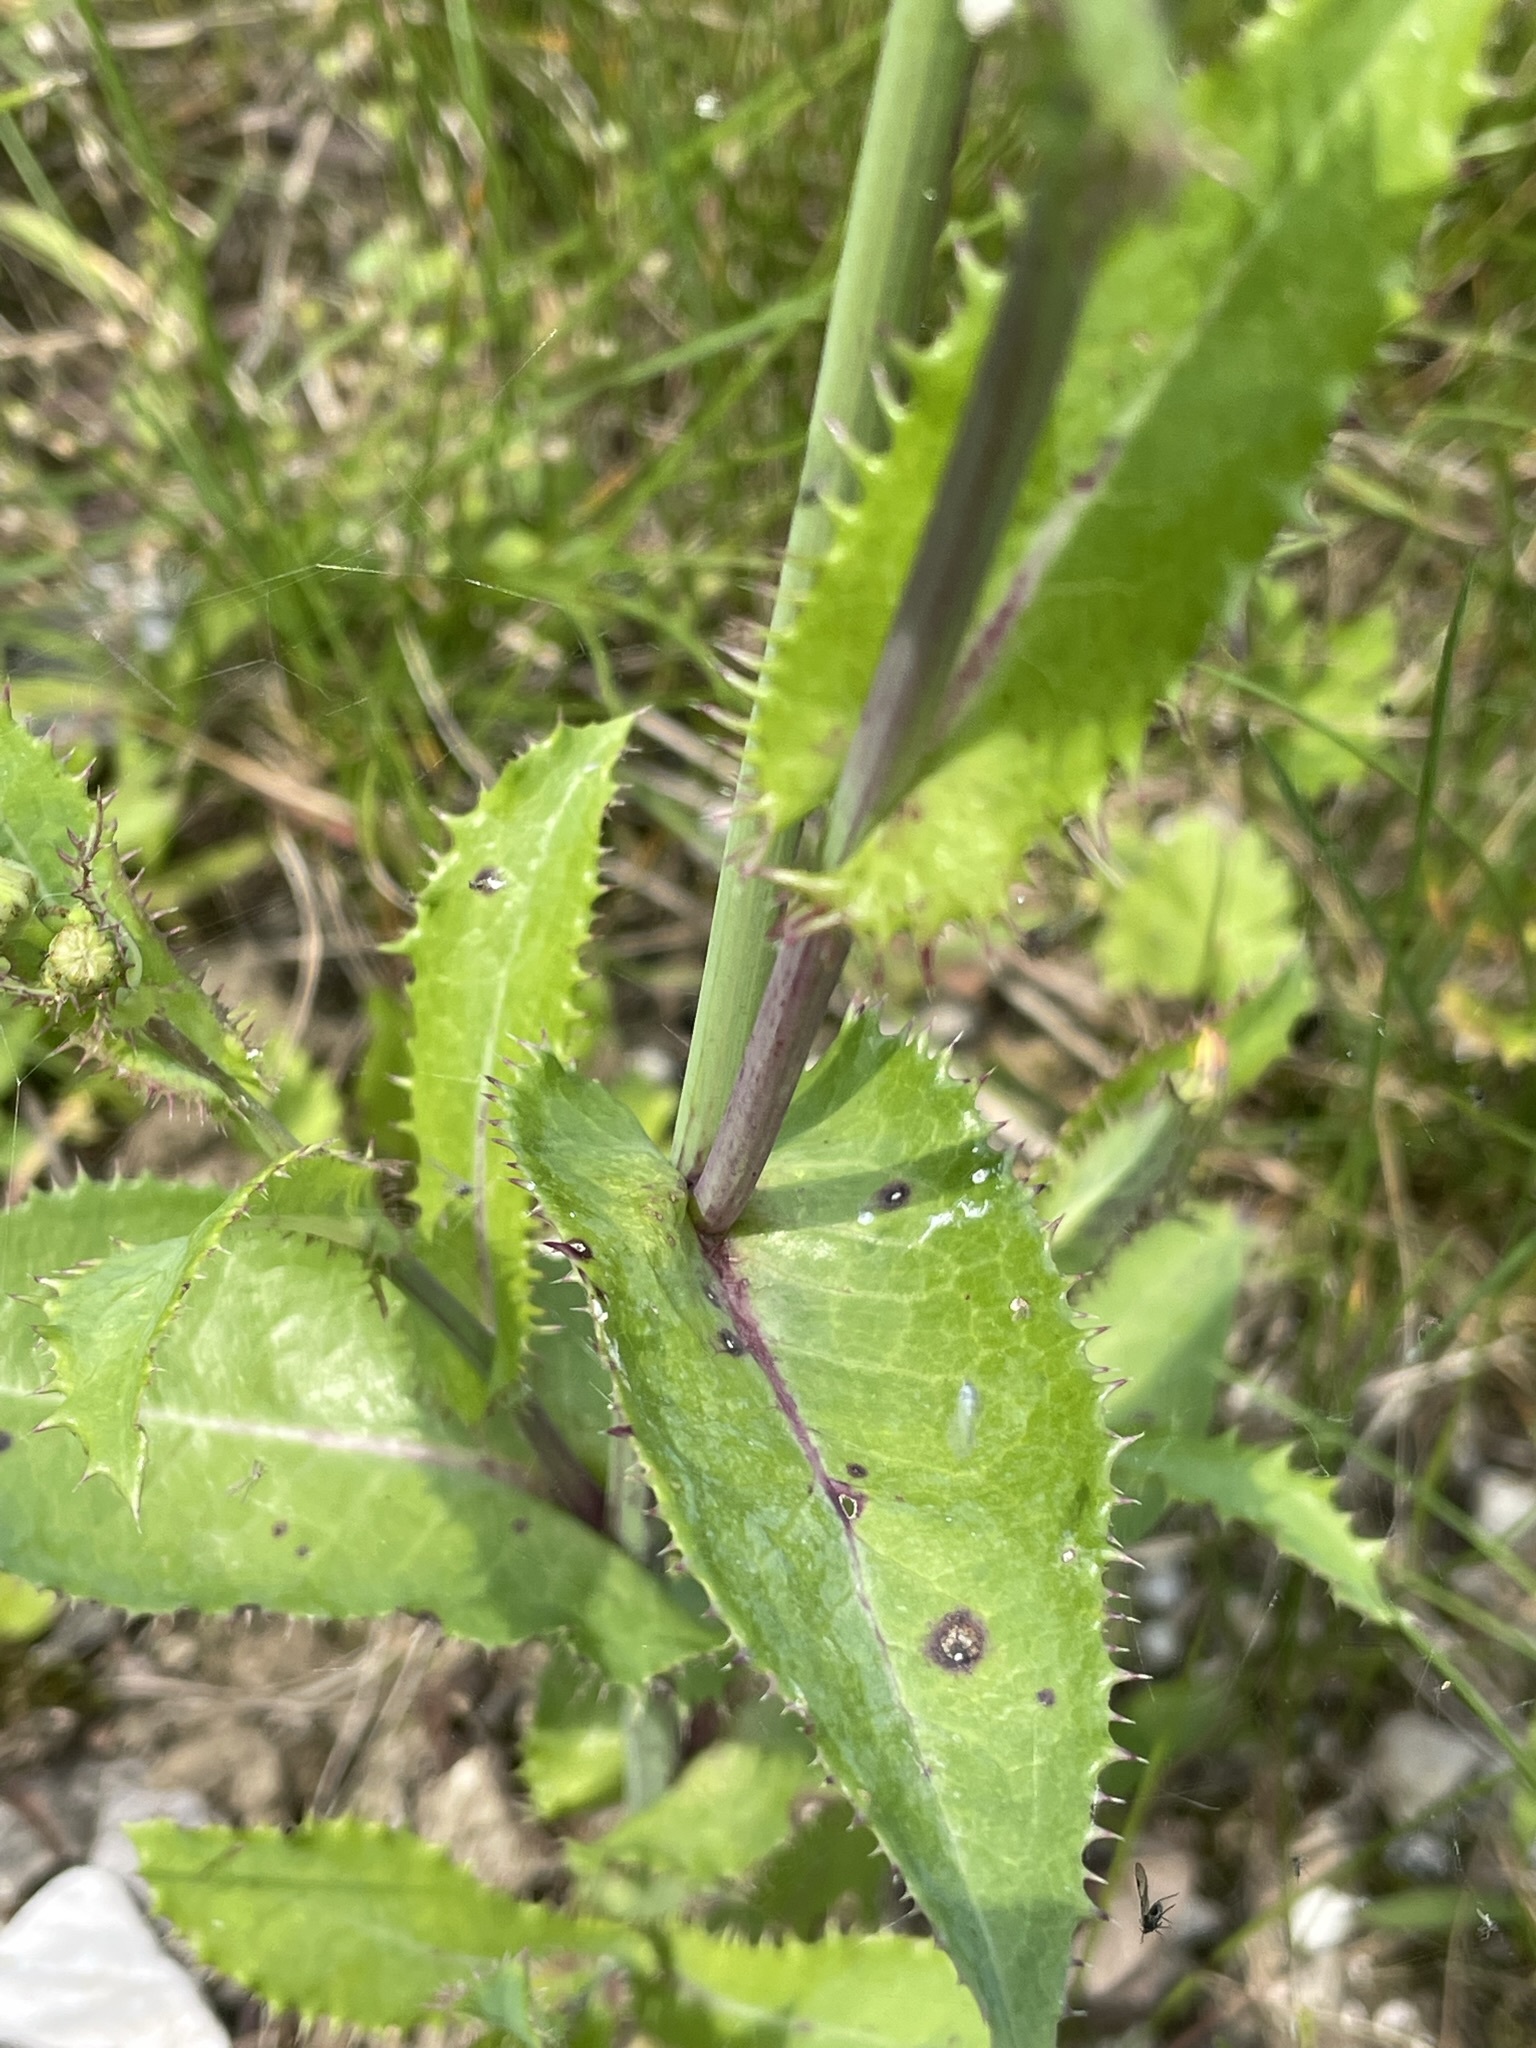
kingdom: Plantae
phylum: Tracheophyta
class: Magnoliopsida
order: Asterales
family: Asteraceae
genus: Sonchus
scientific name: Sonchus asper
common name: Prickly sow-thistle
